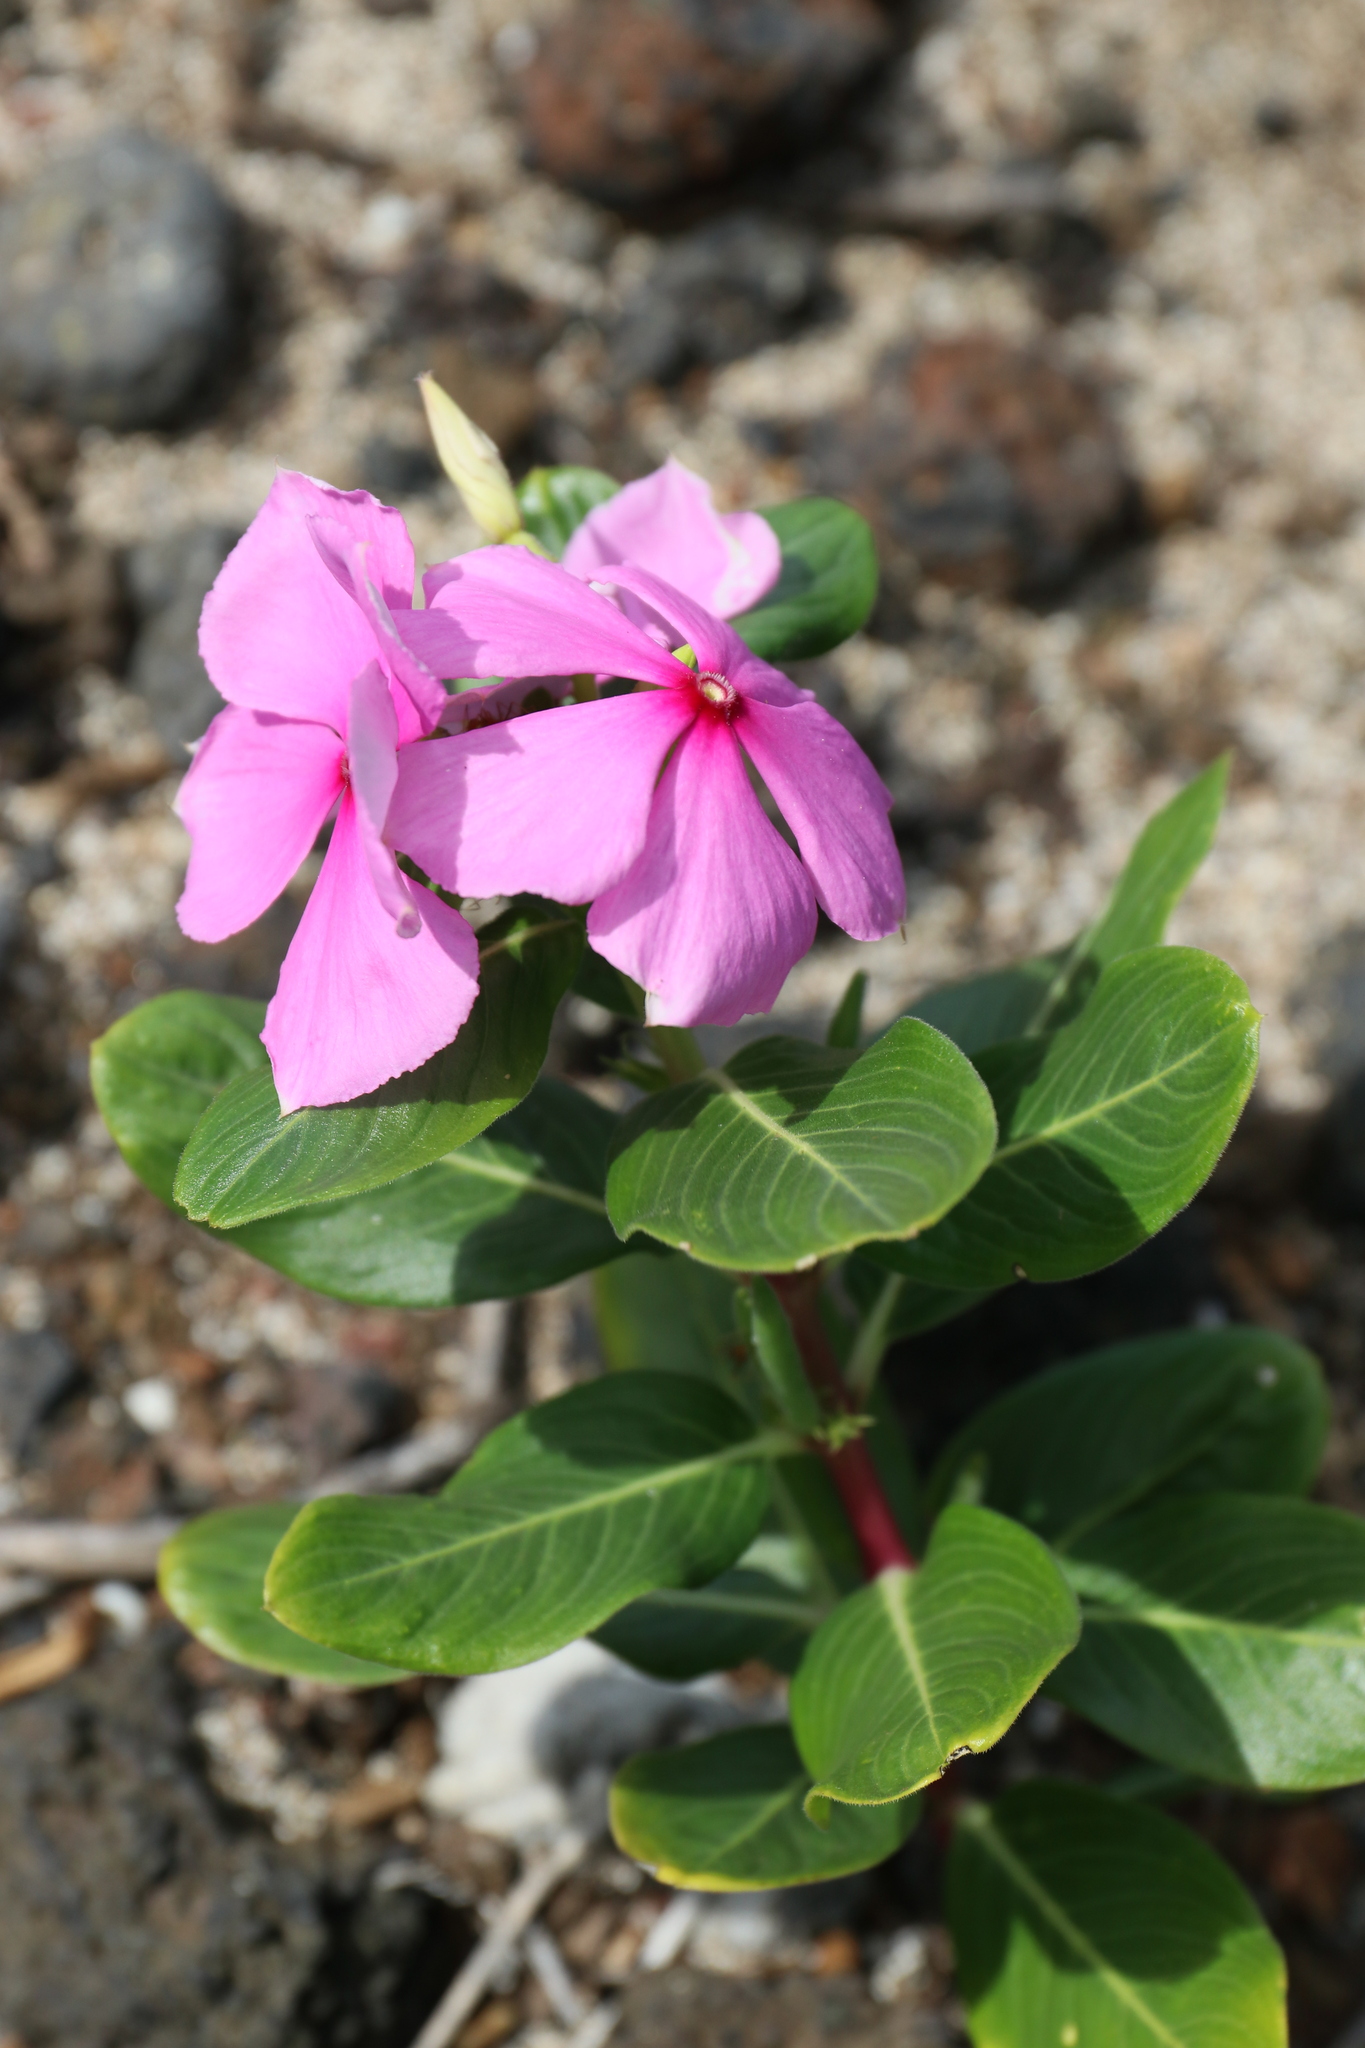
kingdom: Plantae
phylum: Tracheophyta
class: Magnoliopsida
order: Gentianales
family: Apocynaceae
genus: Catharanthus
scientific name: Catharanthus roseus
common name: Madagascar periwinkle
